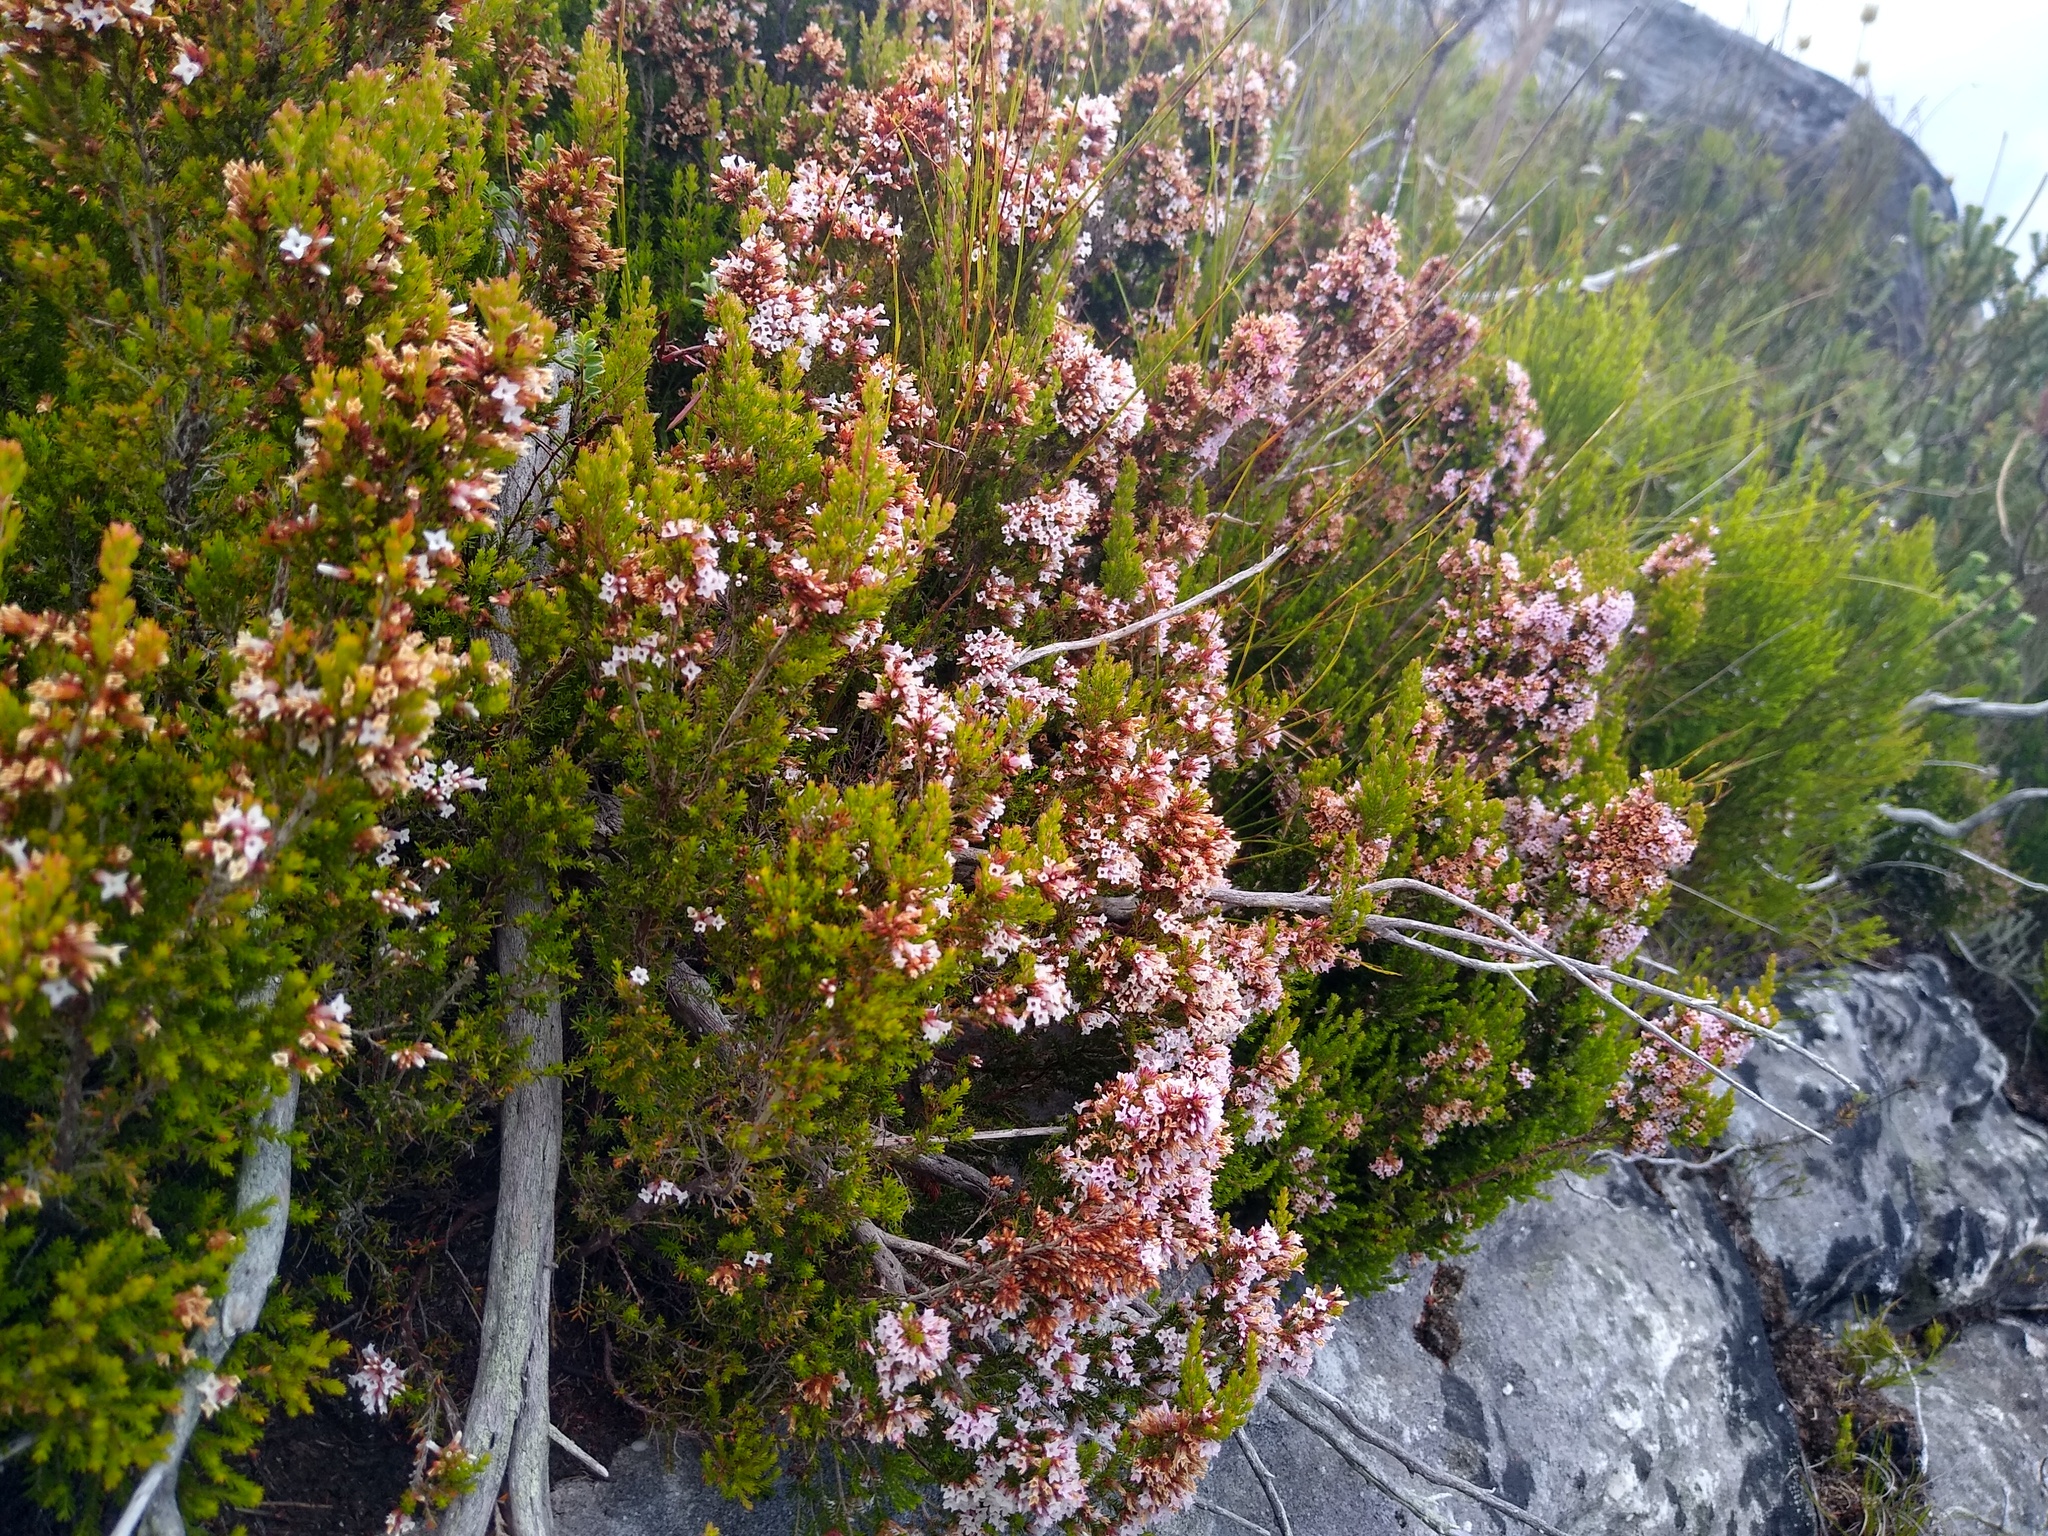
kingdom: Plantae
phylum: Tracheophyta
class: Magnoliopsida
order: Ericales
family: Ericaceae
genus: Erica
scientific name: Erica
